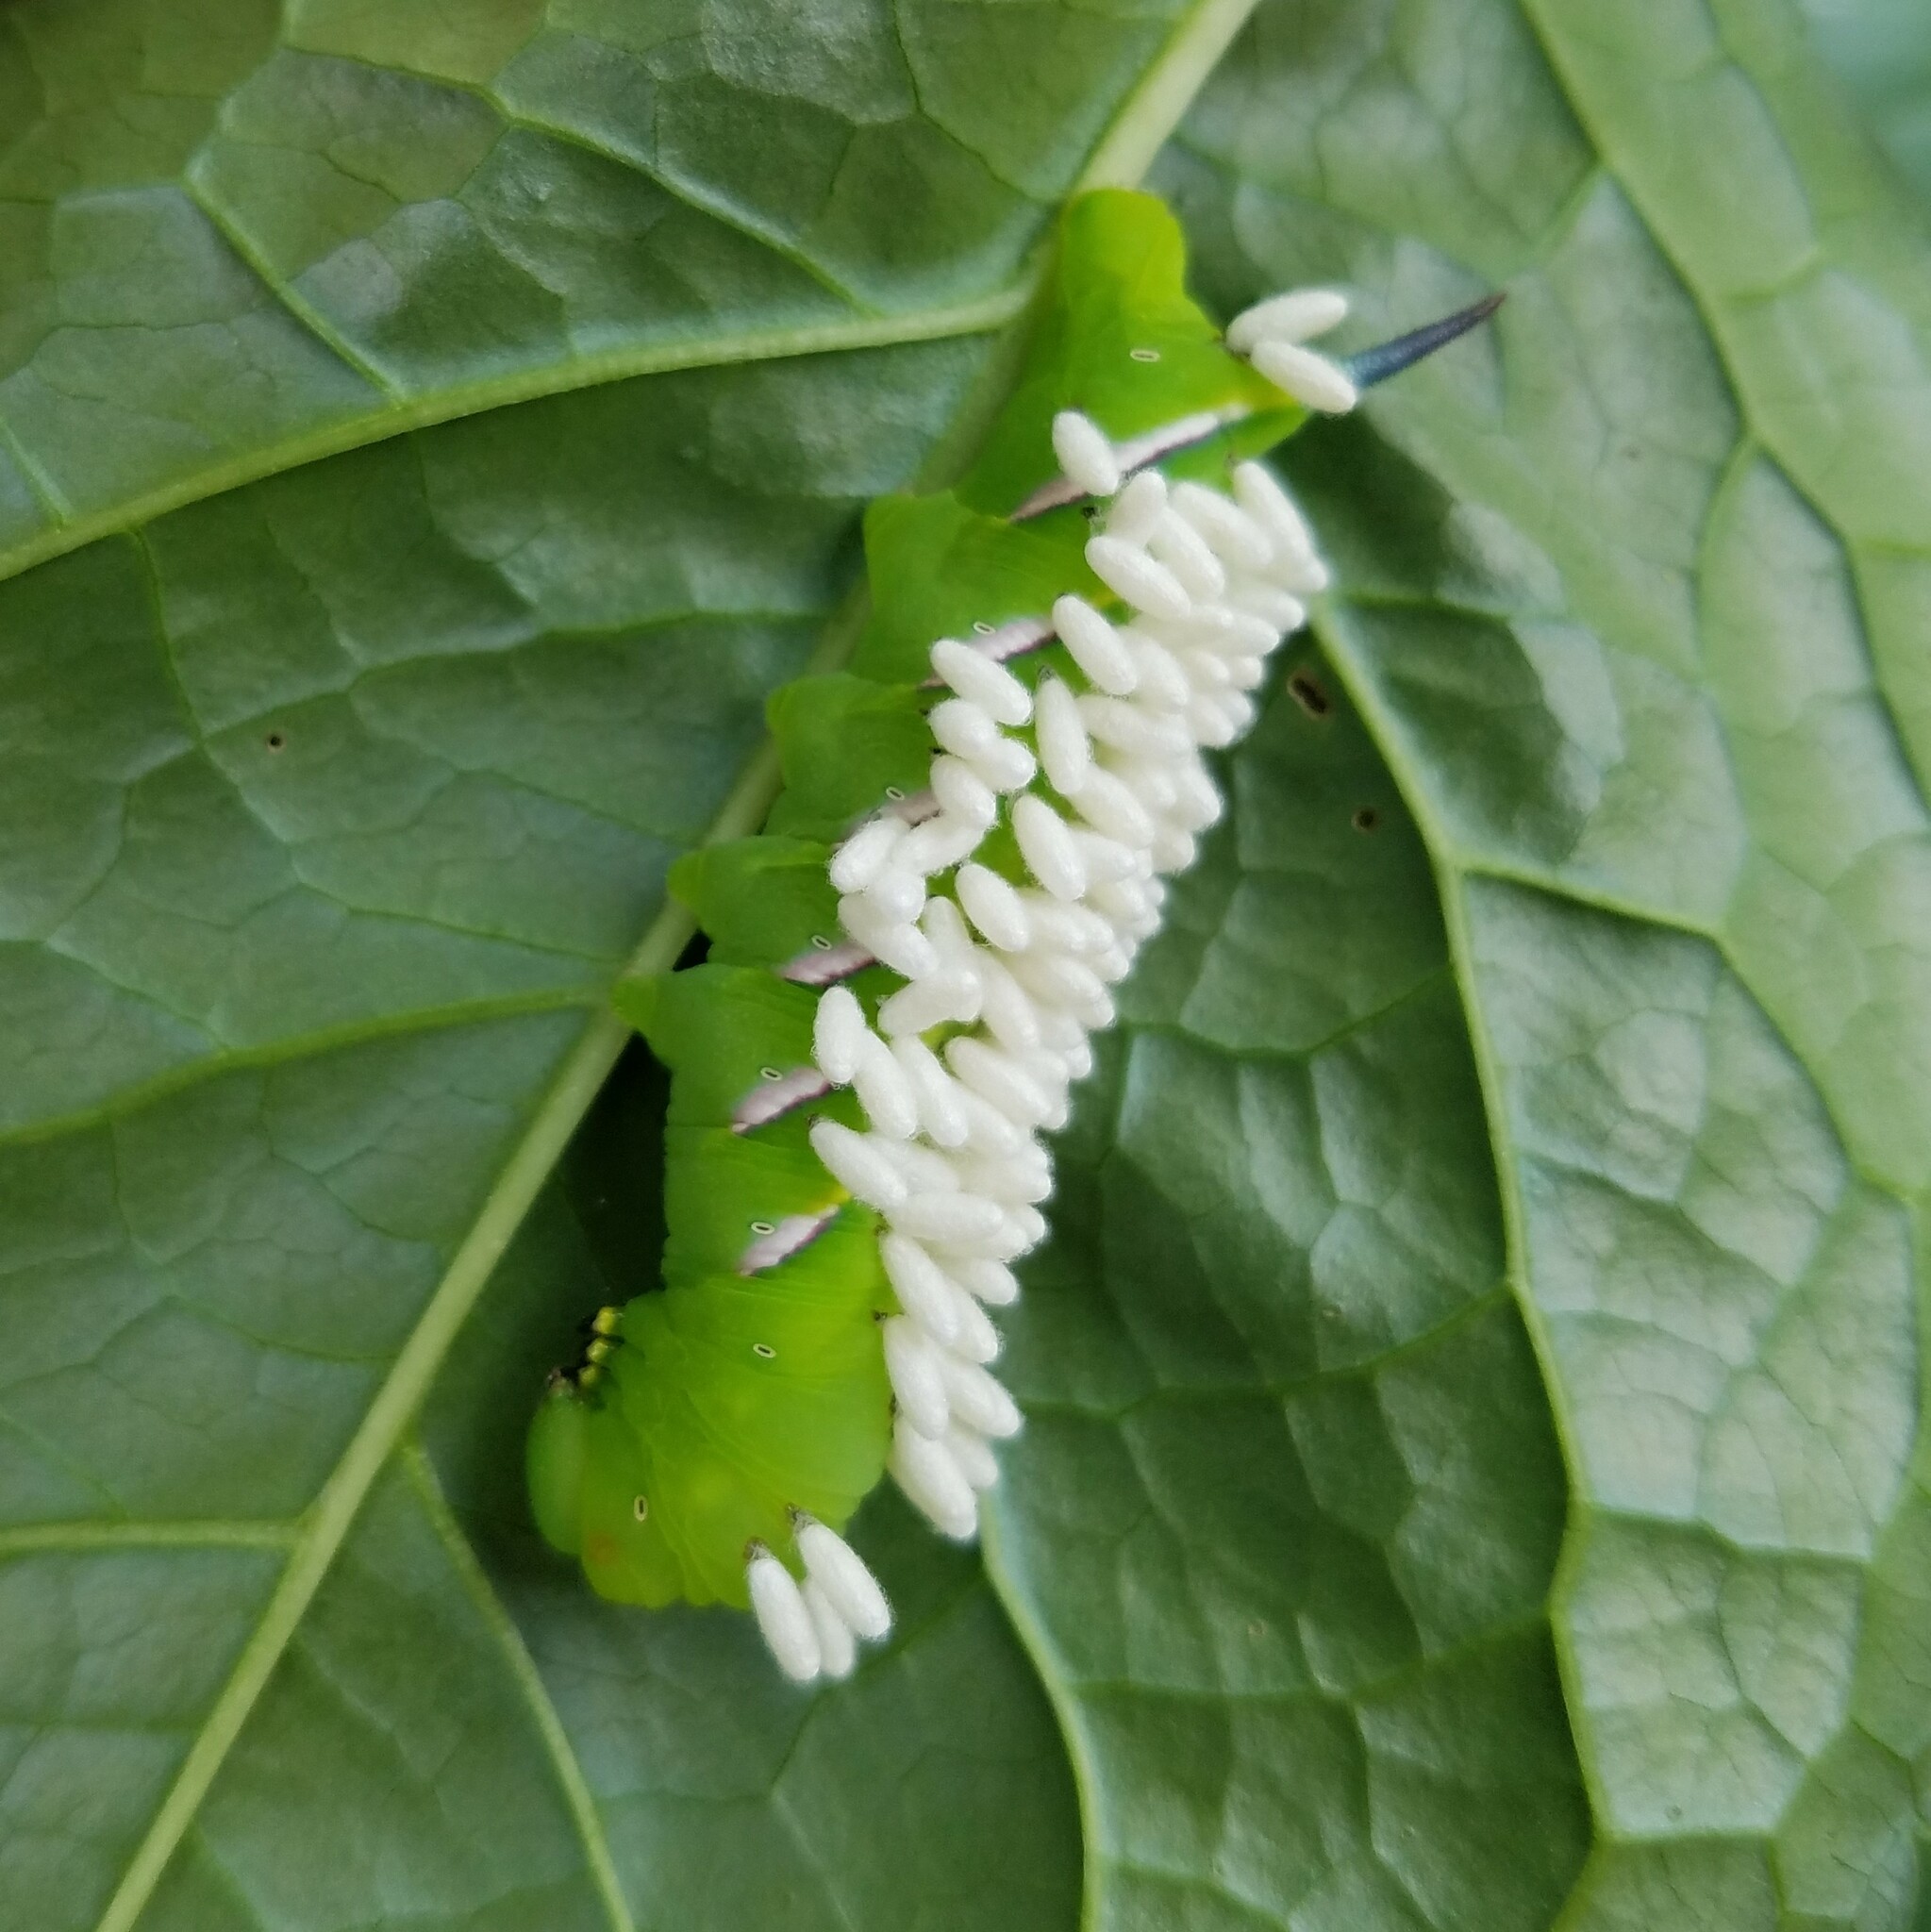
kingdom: Animalia
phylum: Arthropoda
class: Insecta
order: Lepidoptera
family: Sphingidae
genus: Dolba
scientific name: Dolba hyloeus
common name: Pawpaw sphinx
